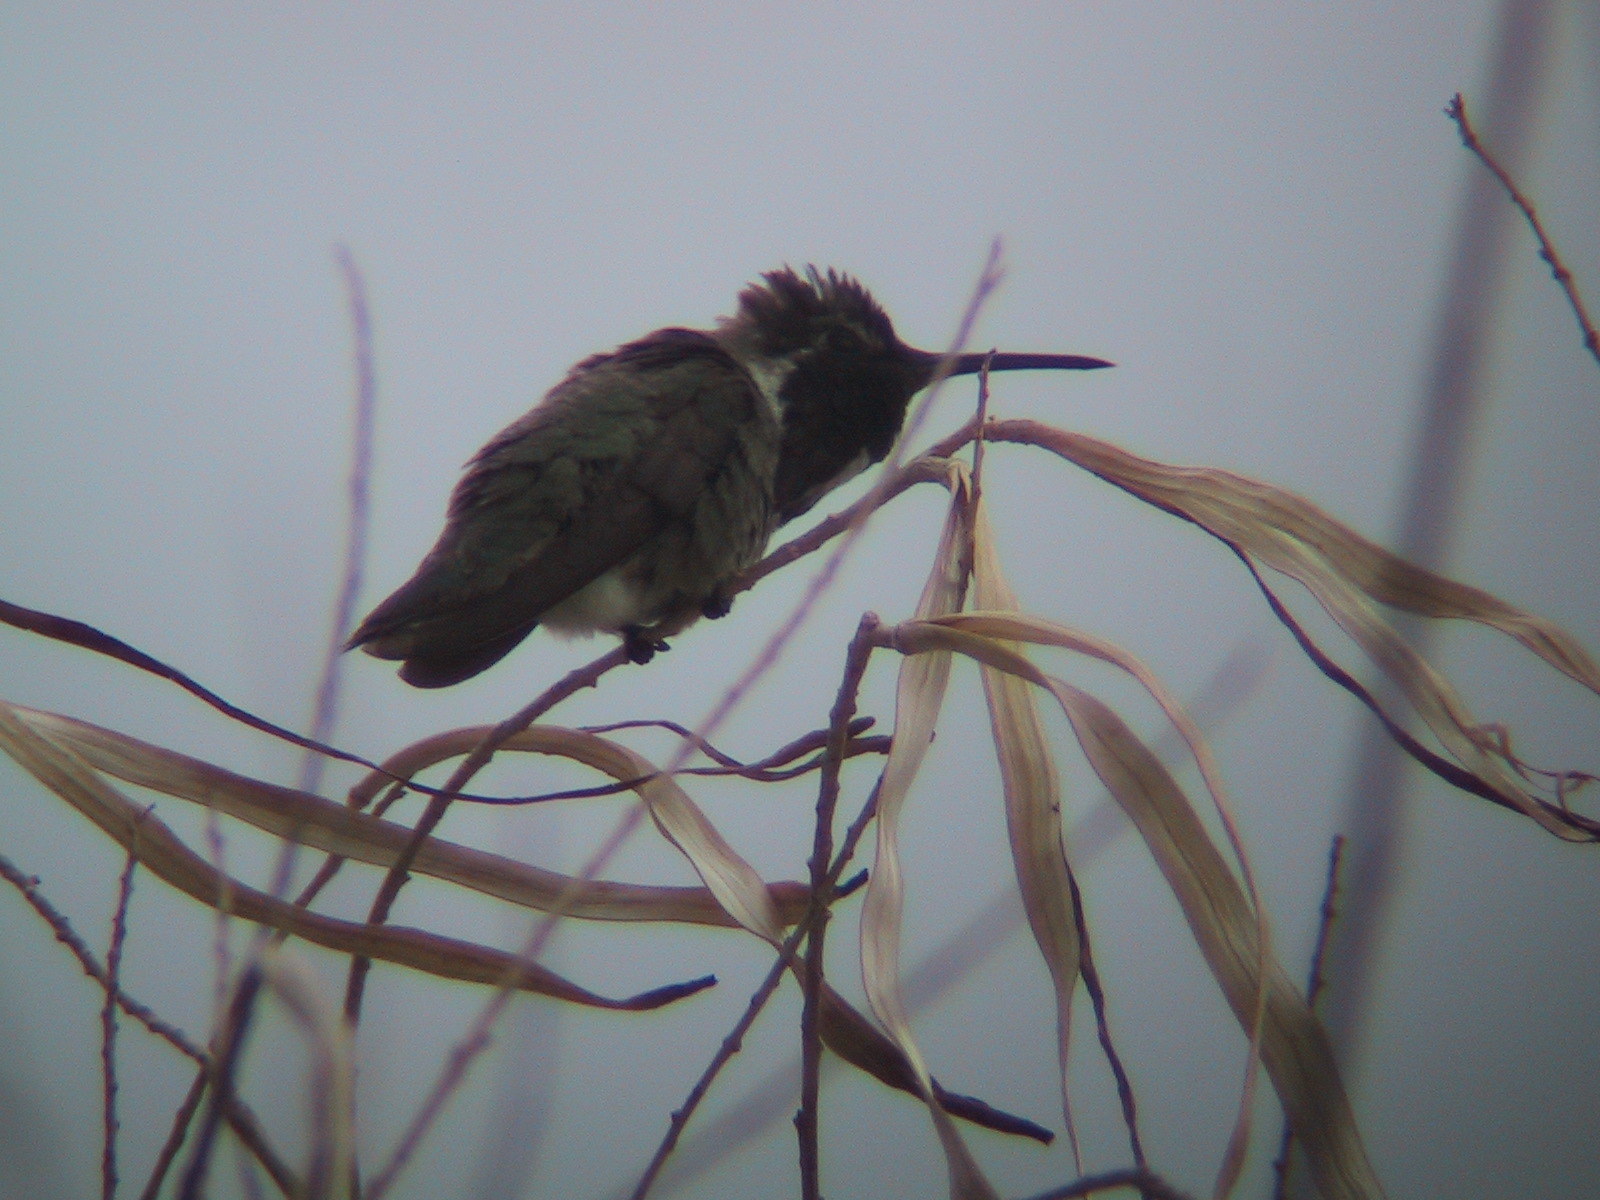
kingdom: Animalia
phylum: Chordata
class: Aves
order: Apodiformes
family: Trochilidae
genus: Calypte
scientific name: Calypte costae
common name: Costa's hummingbird
